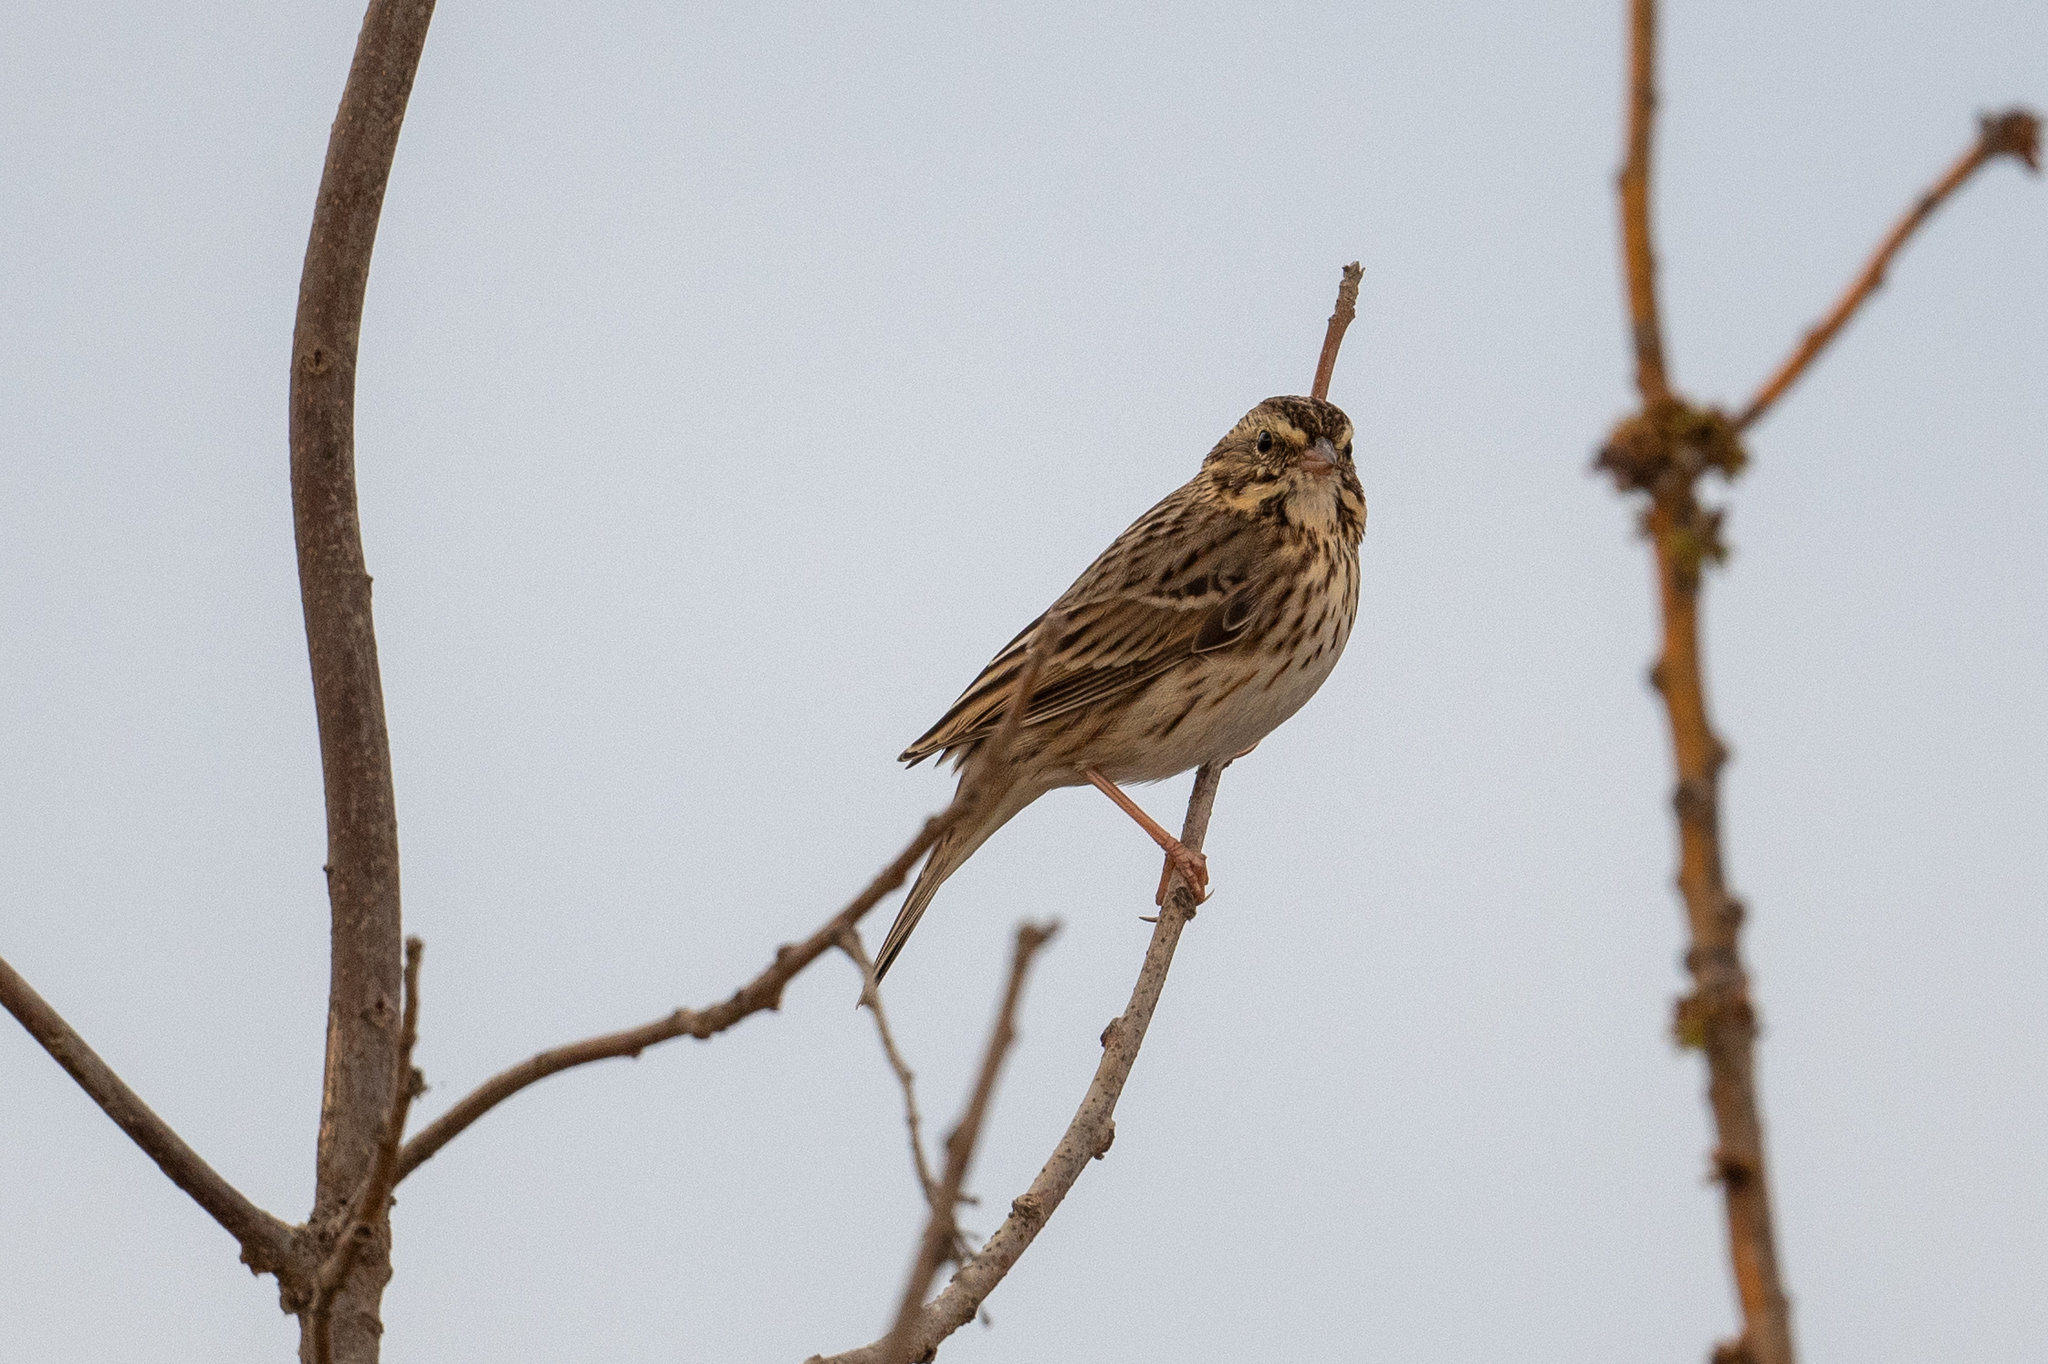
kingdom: Animalia
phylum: Chordata
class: Aves
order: Passeriformes
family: Passerellidae
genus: Passerculus
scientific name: Passerculus sandwichensis
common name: Savannah sparrow
